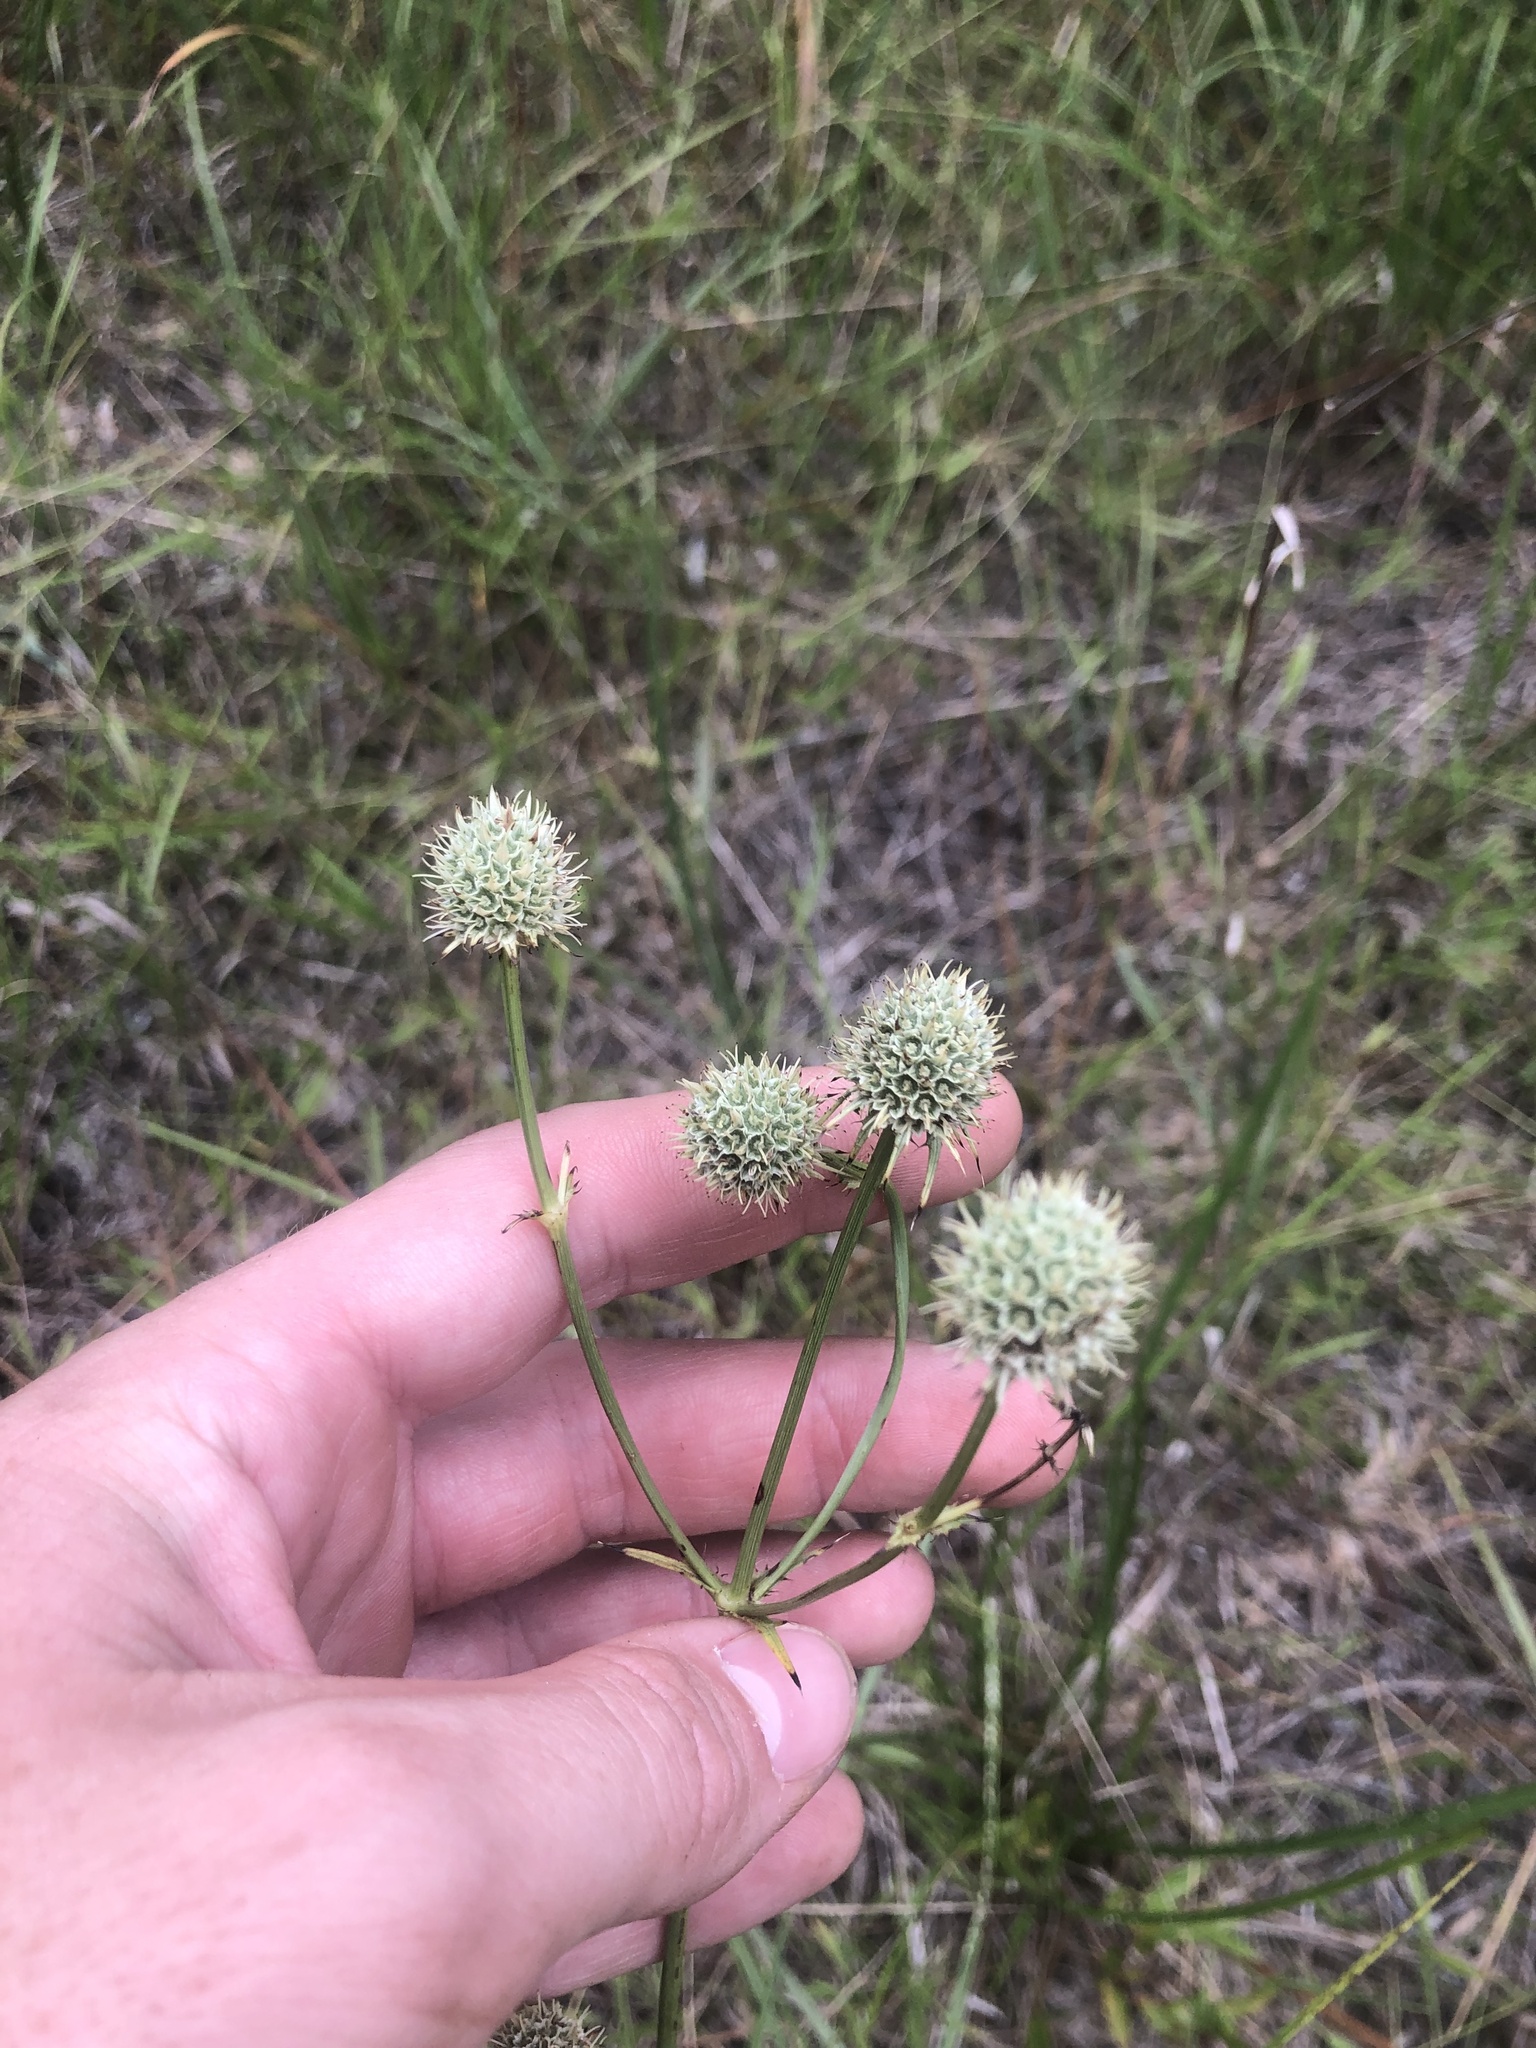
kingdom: Plantae
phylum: Tracheophyta
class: Magnoliopsida
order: Apiales
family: Apiaceae
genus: Eryngium
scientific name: Eryngium yuccifolium
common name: Button eryngo
